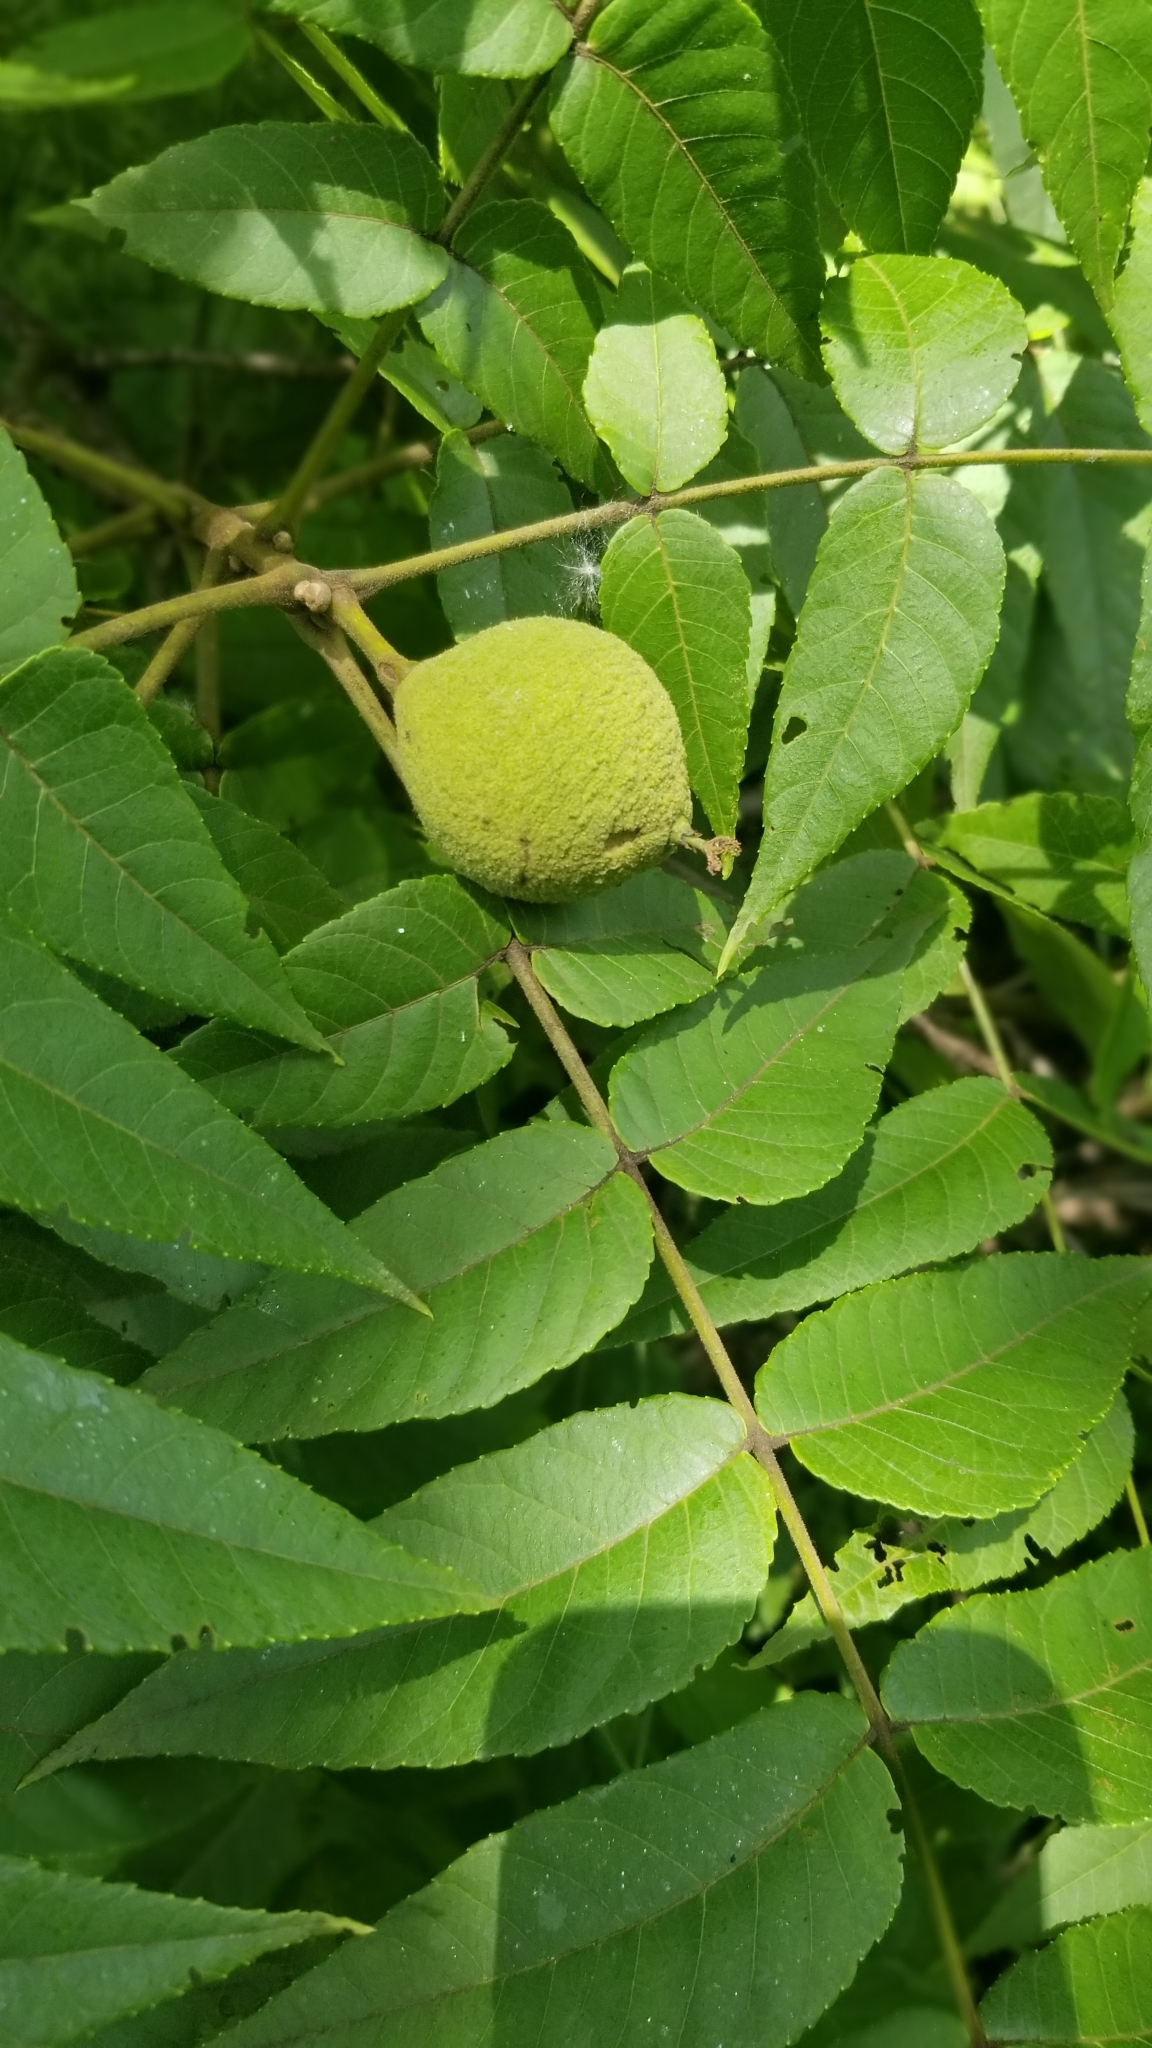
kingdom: Plantae
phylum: Tracheophyta
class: Magnoliopsida
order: Fagales
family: Juglandaceae
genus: Juglans
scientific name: Juglans nigra
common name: Black walnut
